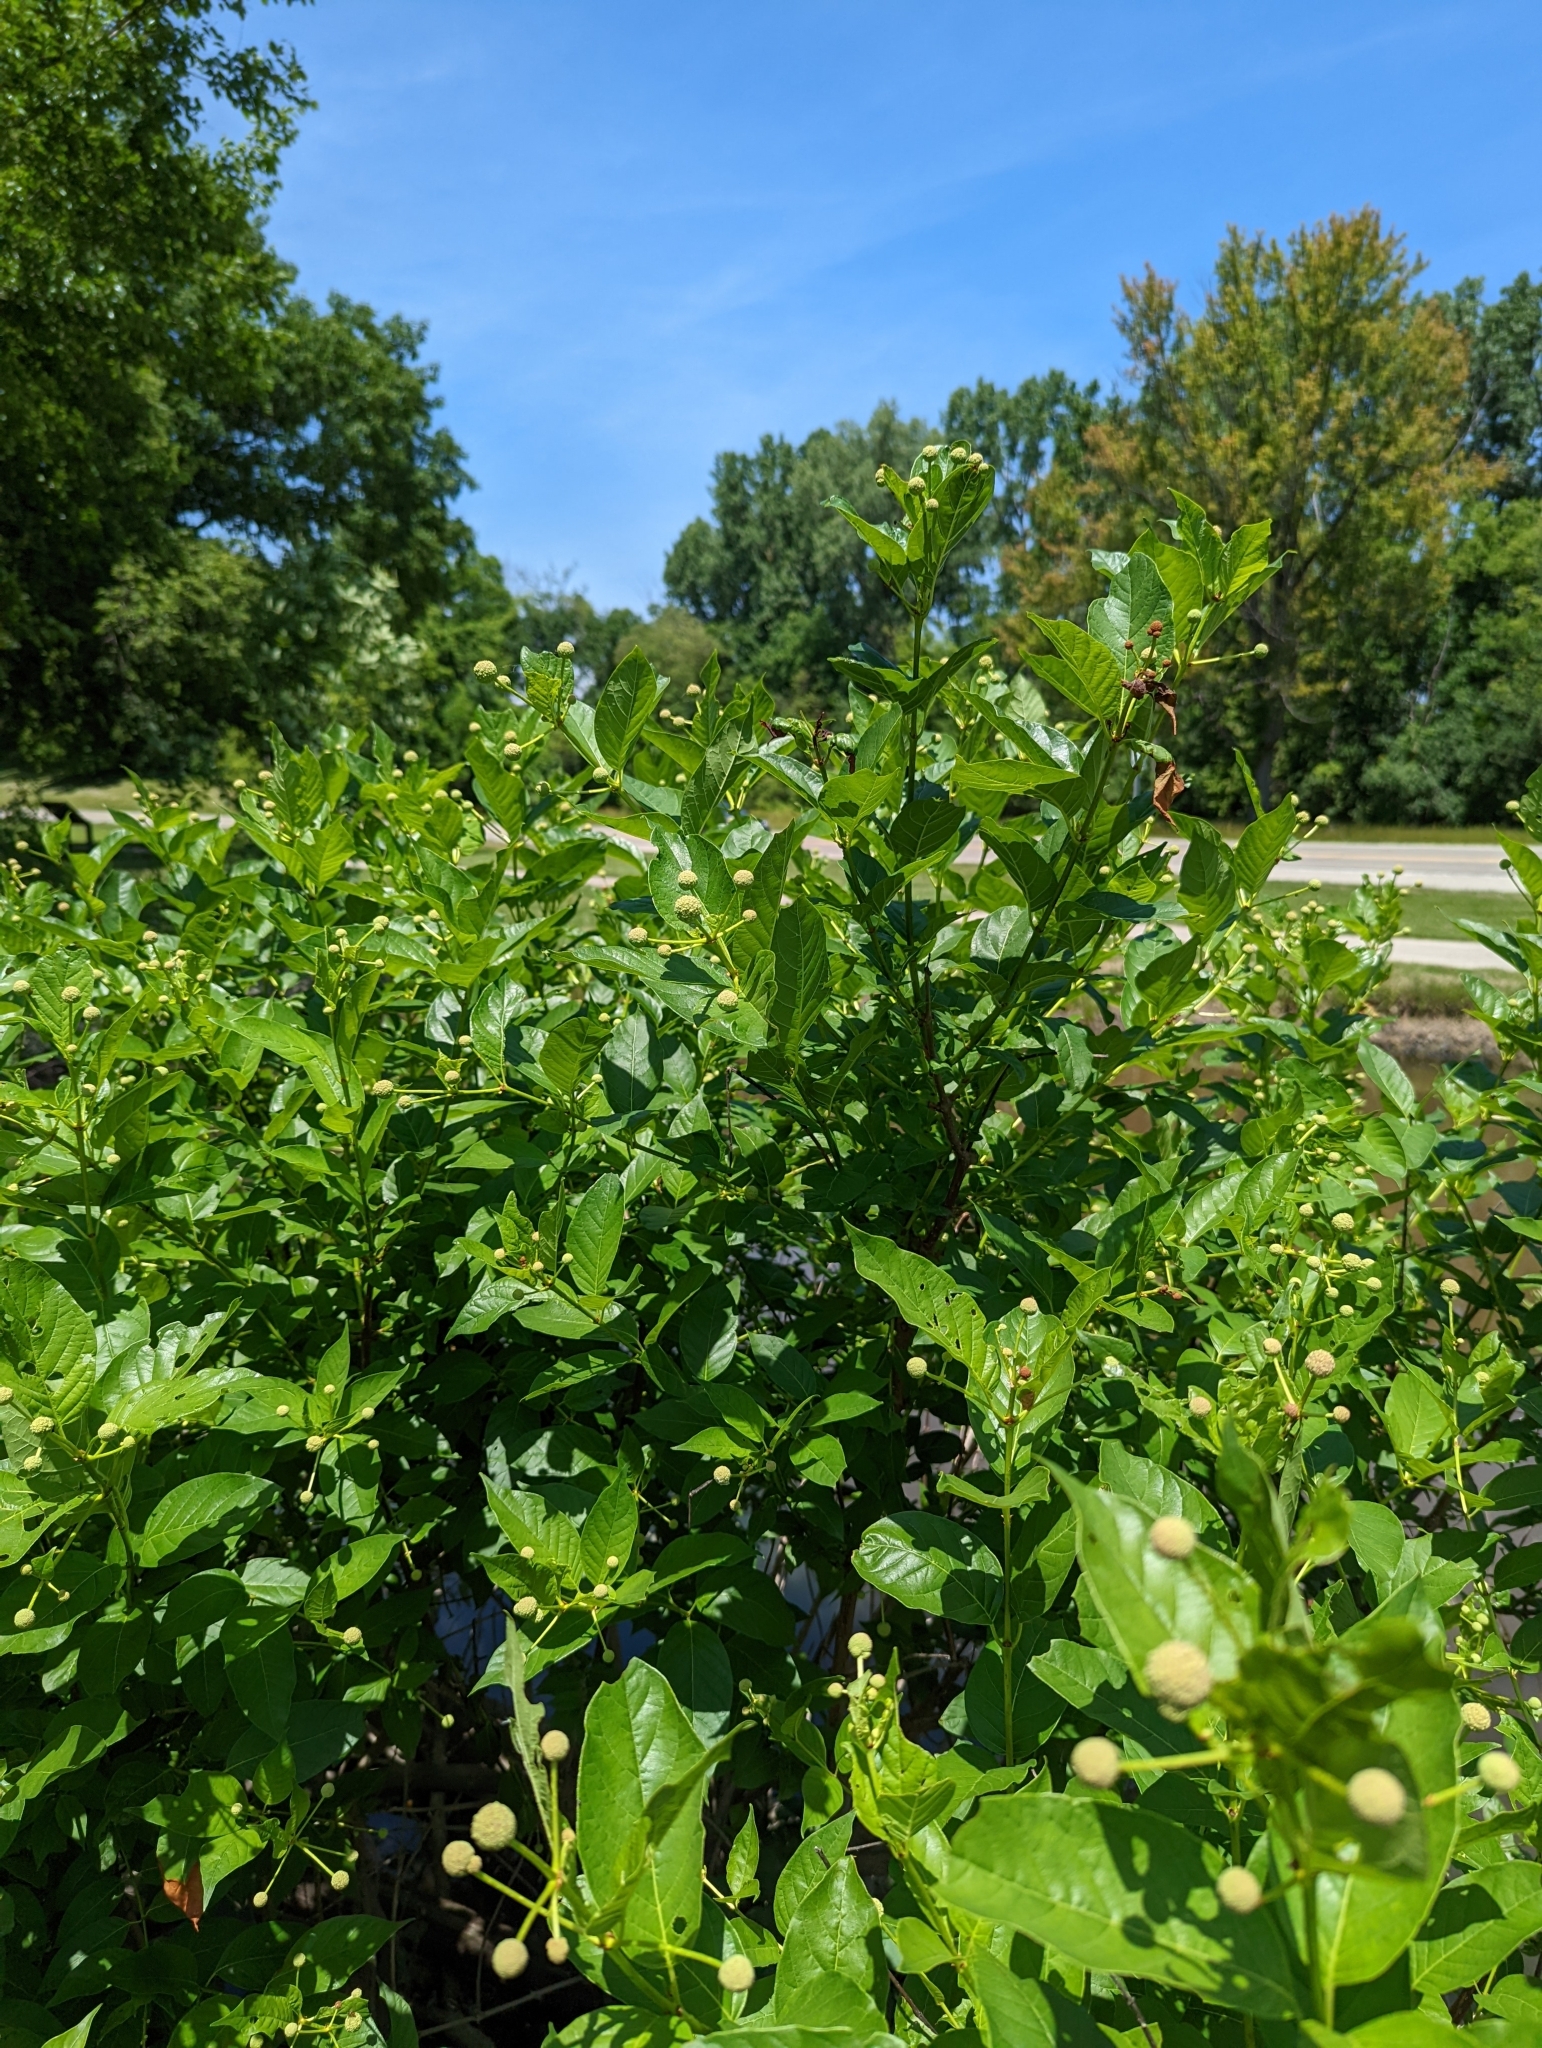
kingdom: Plantae
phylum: Tracheophyta
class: Magnoliopsida
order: Gentianales
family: Rubiaceae
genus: Cephalanthus
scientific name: Cephalanthus occidentalis
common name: Button-willow
